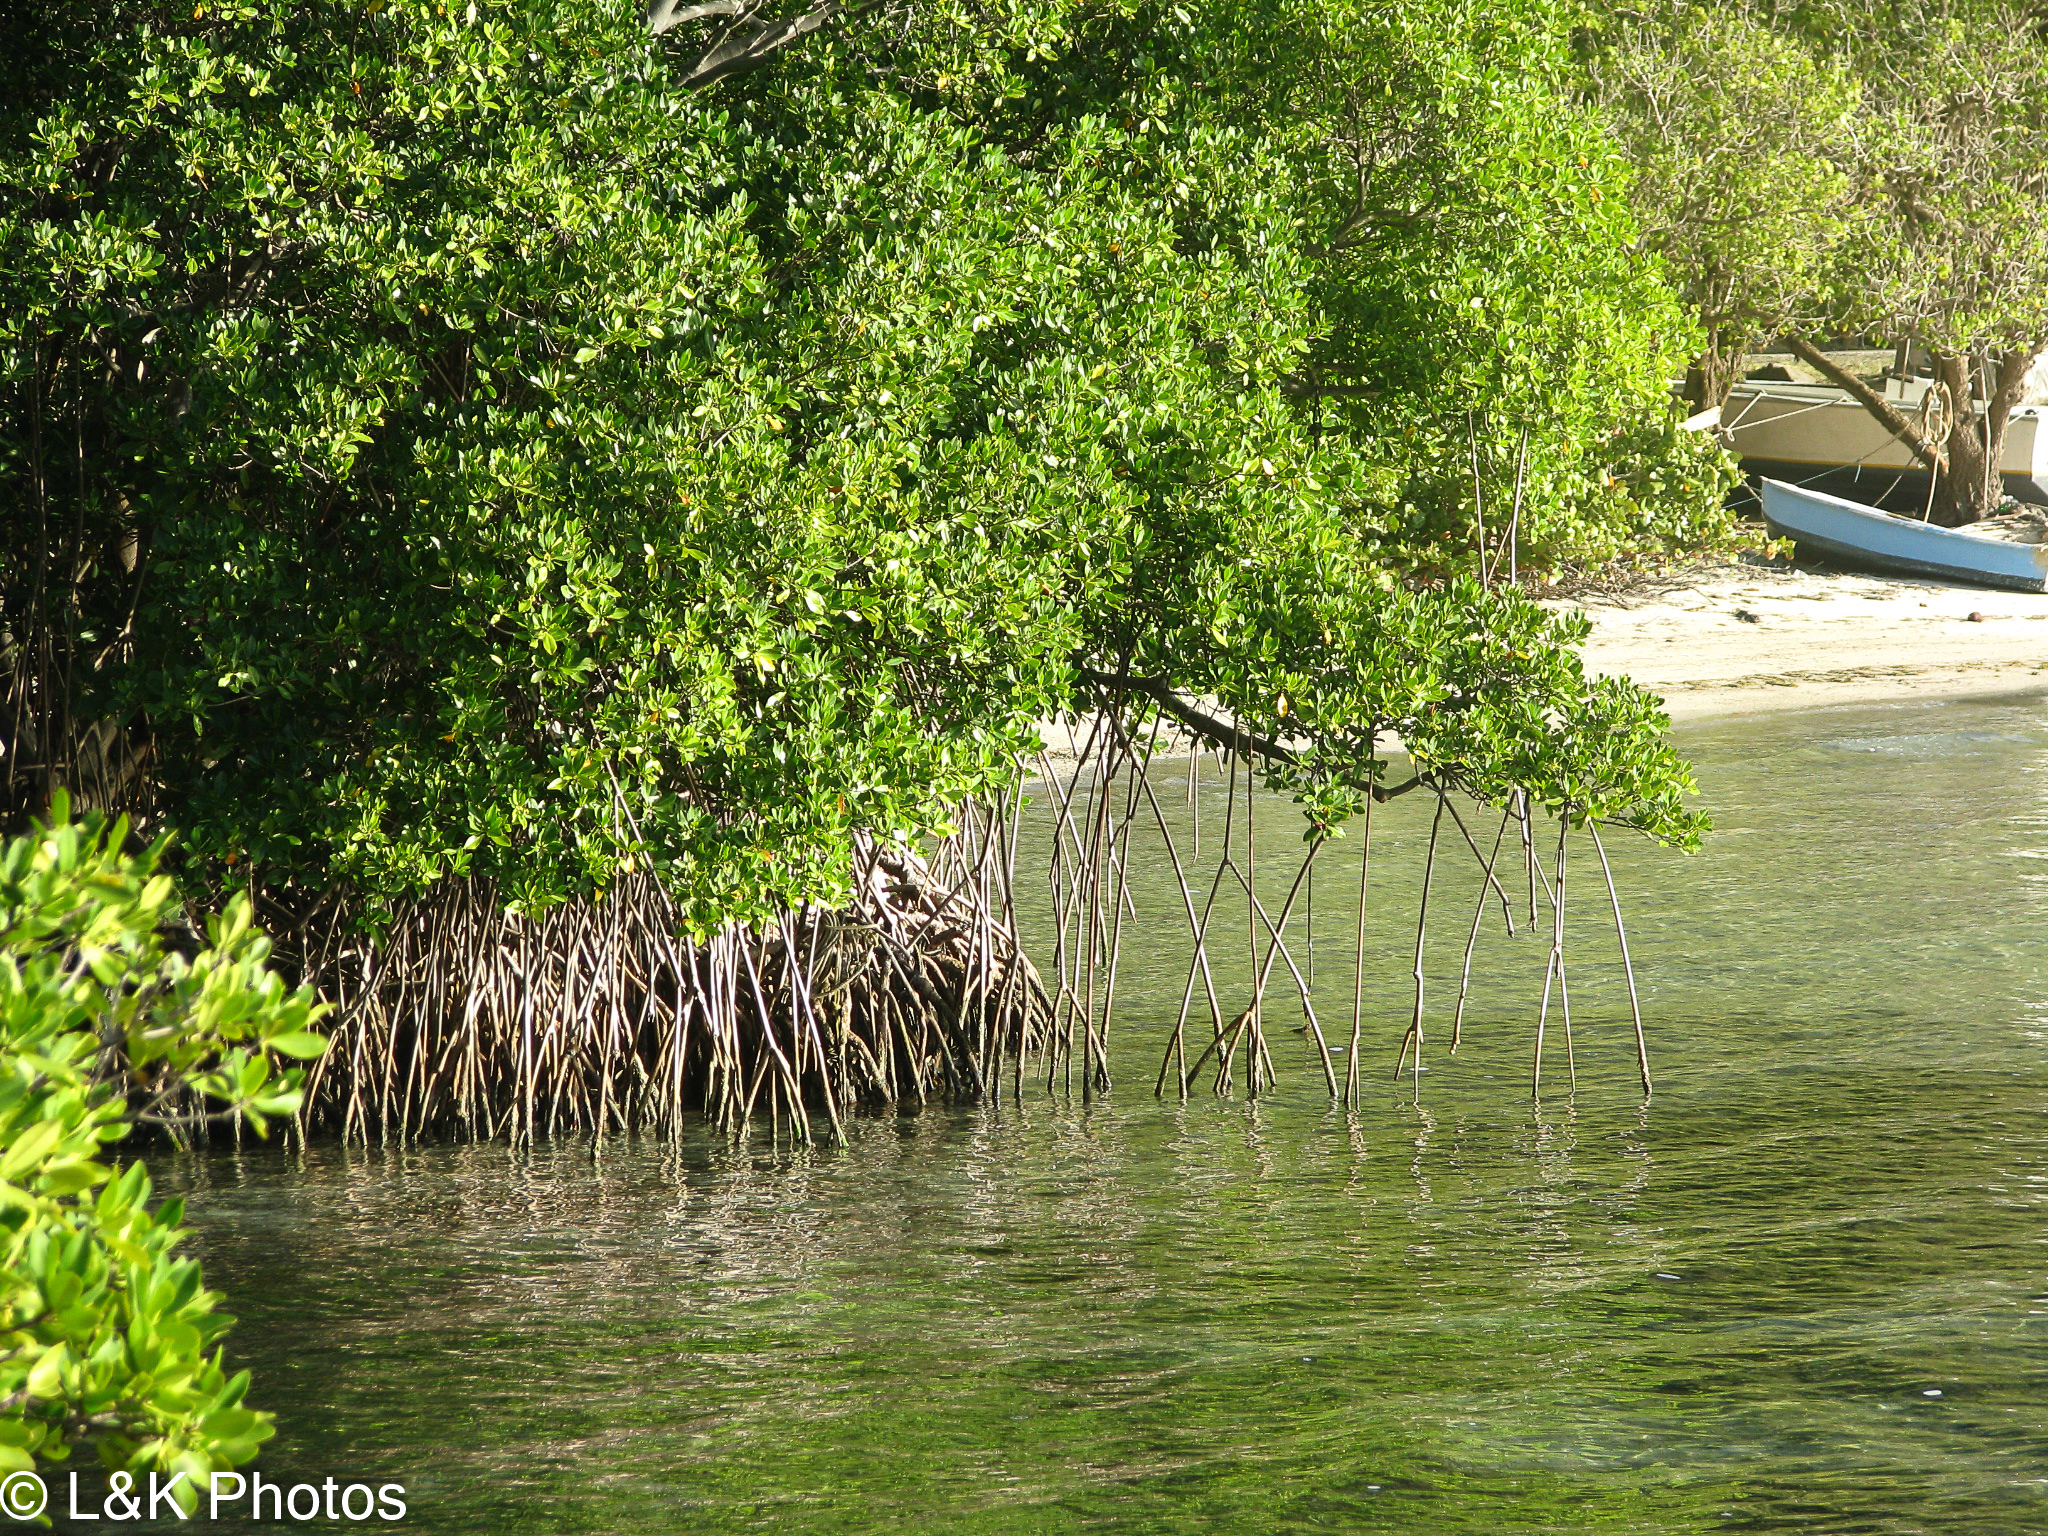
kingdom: Plantae
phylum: Tracheophyta
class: Magnoliopsida
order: Malpighiales
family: Rhizophoraceae
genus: Rhizophora
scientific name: Rhizophora mangle
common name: Red mangrove
